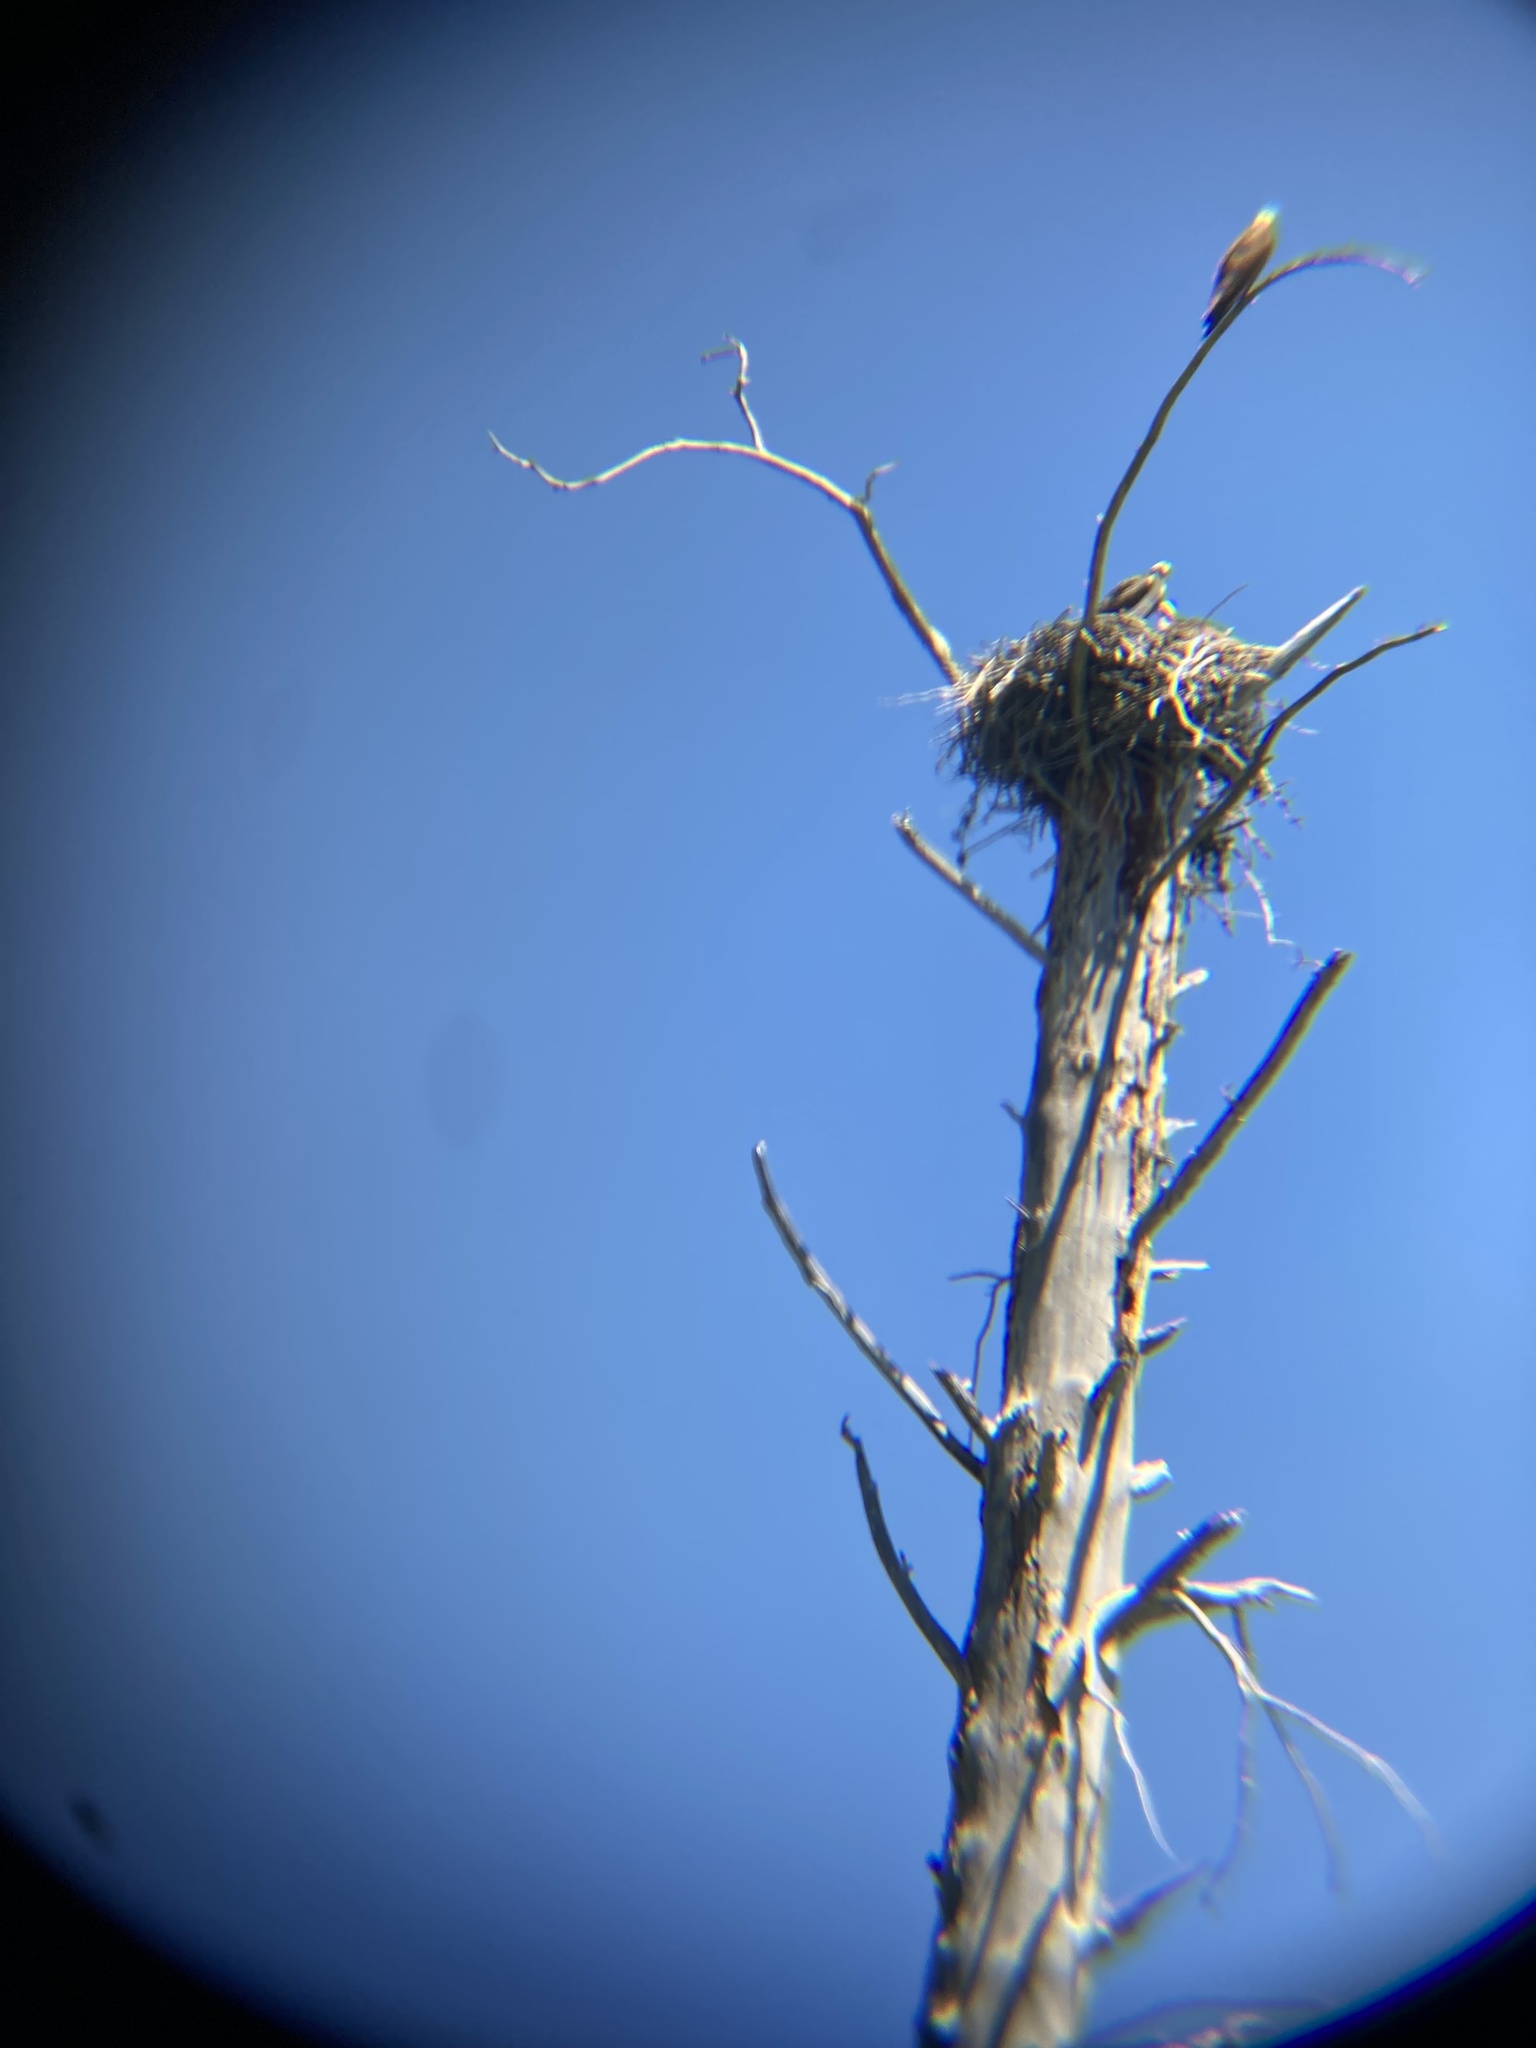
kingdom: Animalia
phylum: Chordata
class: Aves
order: Accipitriformes
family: Pandionidae
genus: Pandion
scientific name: Pandion haliaetus
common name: Osprey
